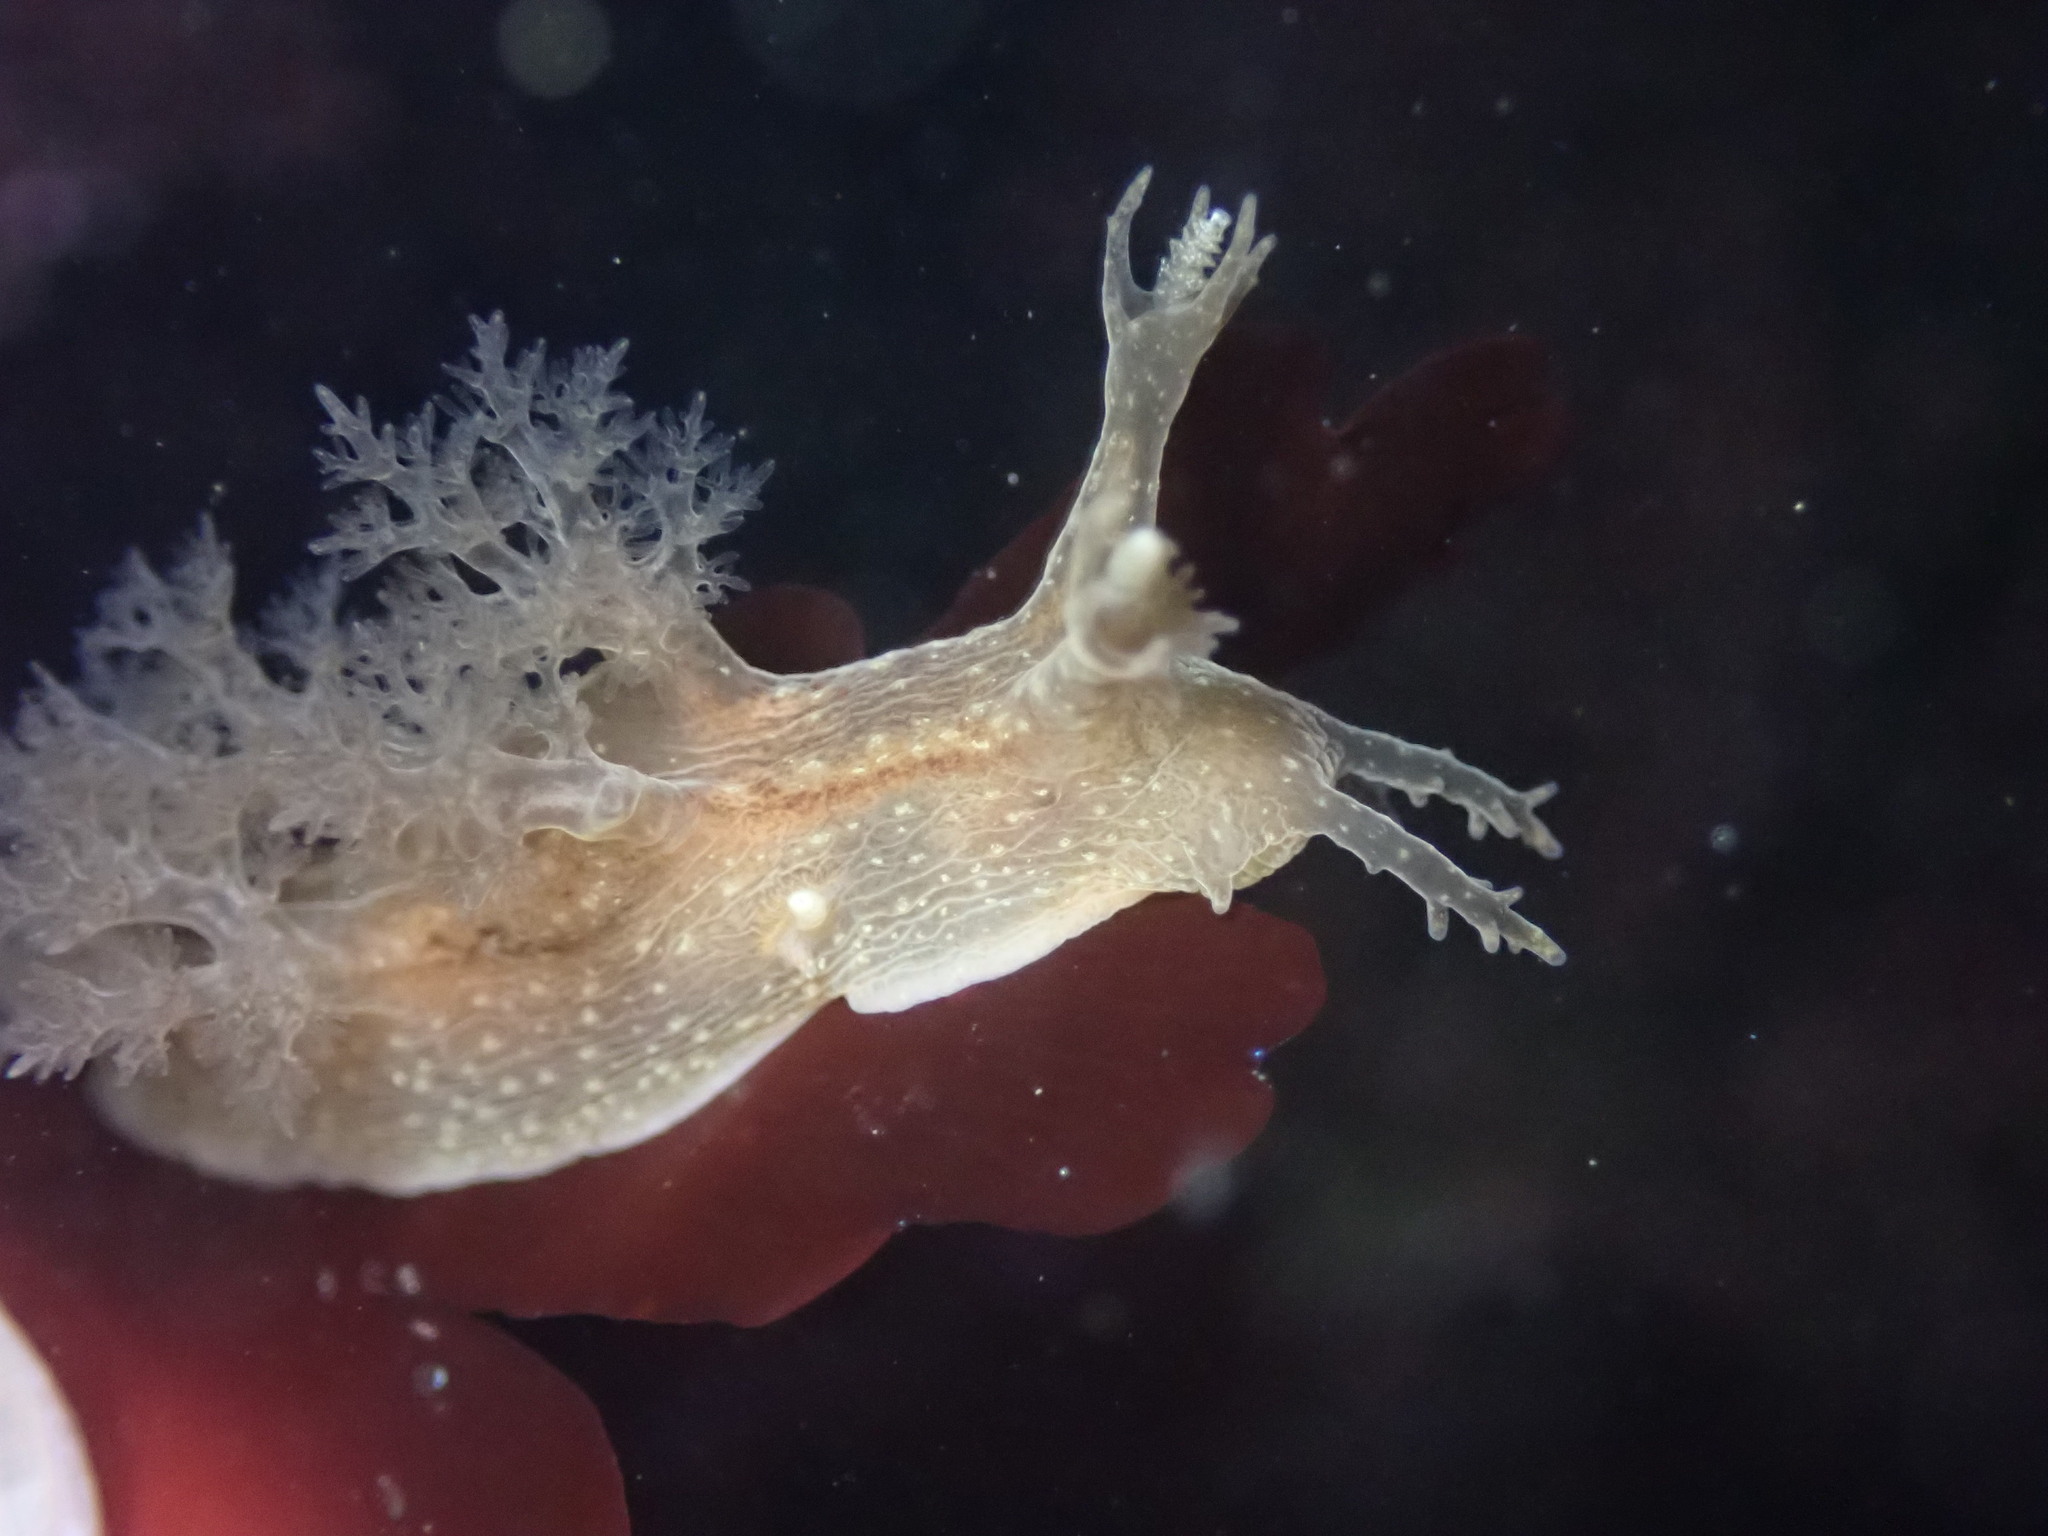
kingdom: Animalia
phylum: Mollusca
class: Gastropoda
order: Nudibranchia
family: Dendronotidae
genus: Dendronotus
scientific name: Dendronotus subramosus
